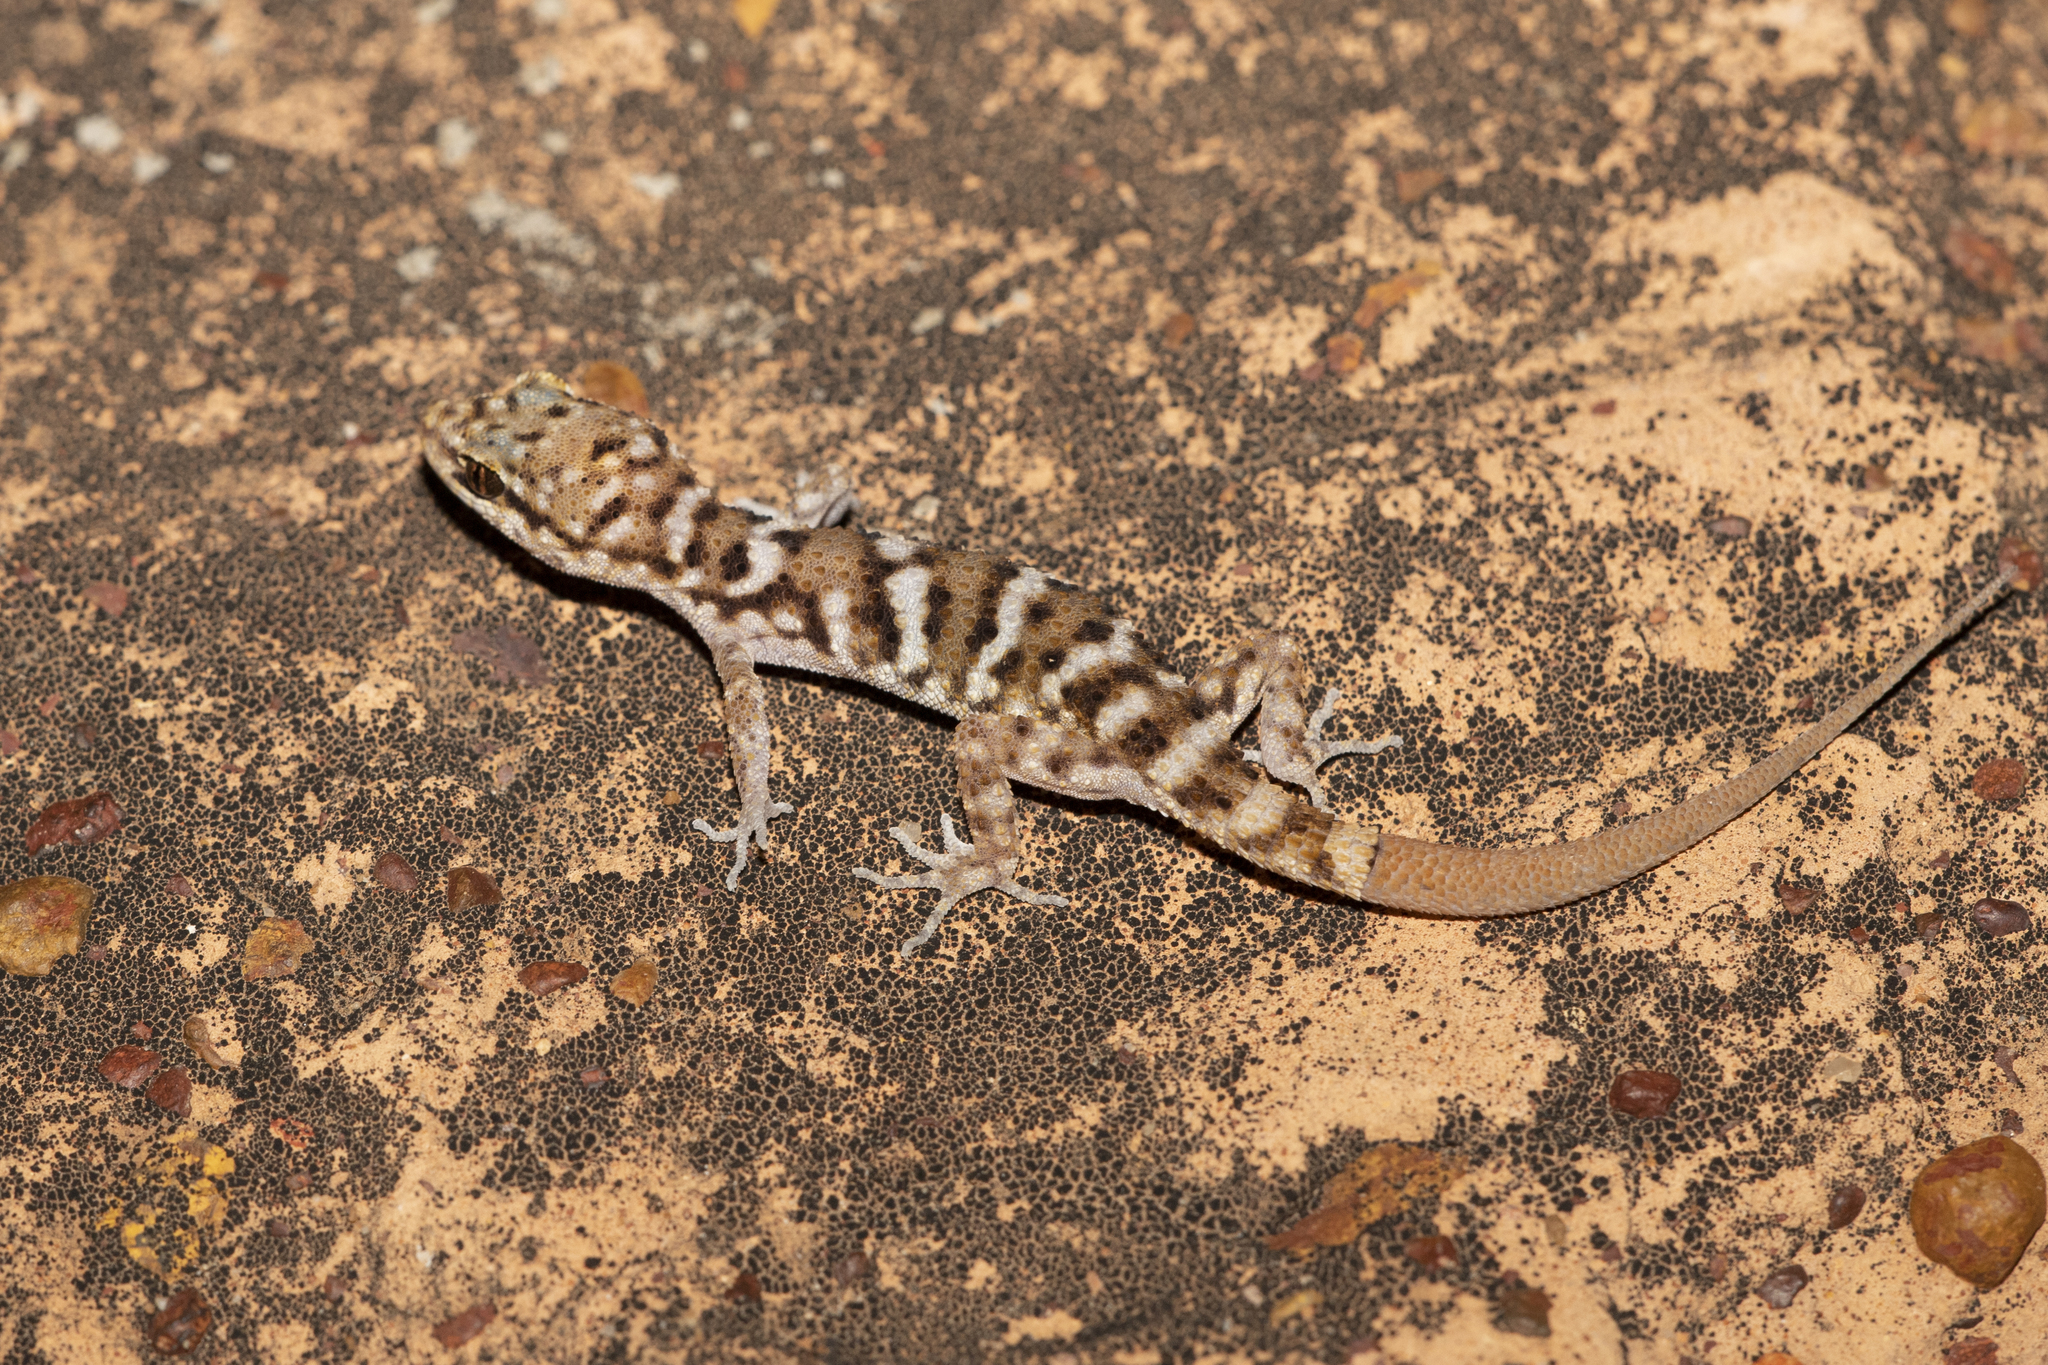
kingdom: Animalia
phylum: Chordata
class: Squamata
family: Gekkonidae
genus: Heteronotia
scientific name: Heteronotia binoei
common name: Bynoe's gecko
